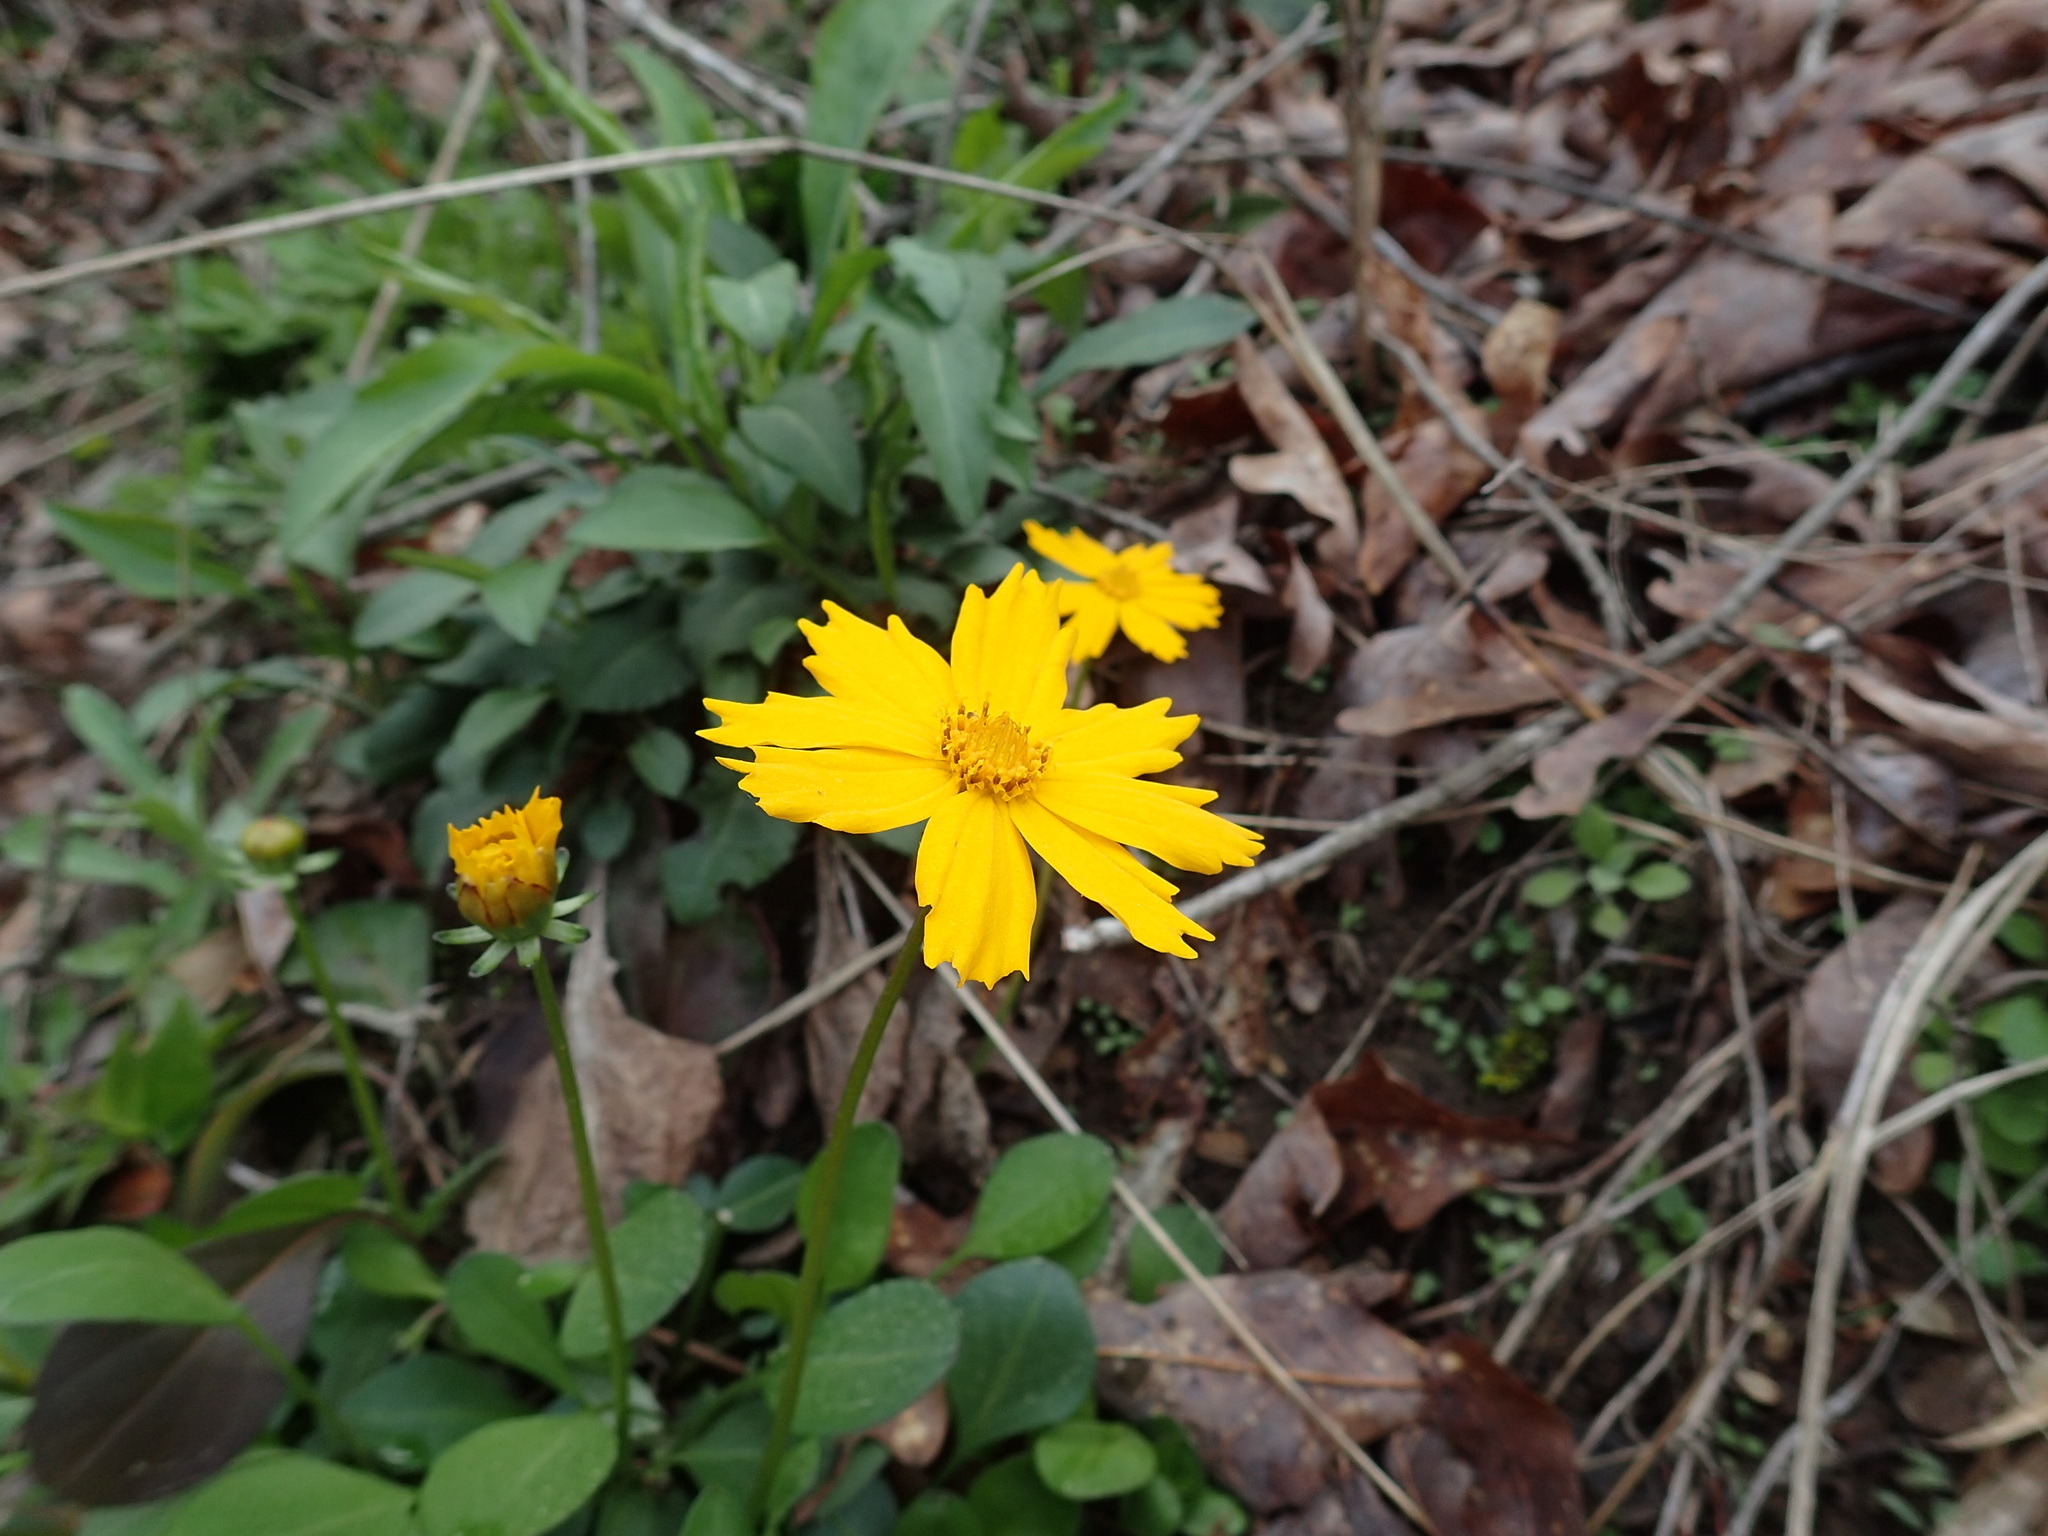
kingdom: Plantae
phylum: Tracheophyta
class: Magnoliopsida
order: Asterales
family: Asteraceae
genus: Coreopsis
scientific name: Coreopsis auriculata
